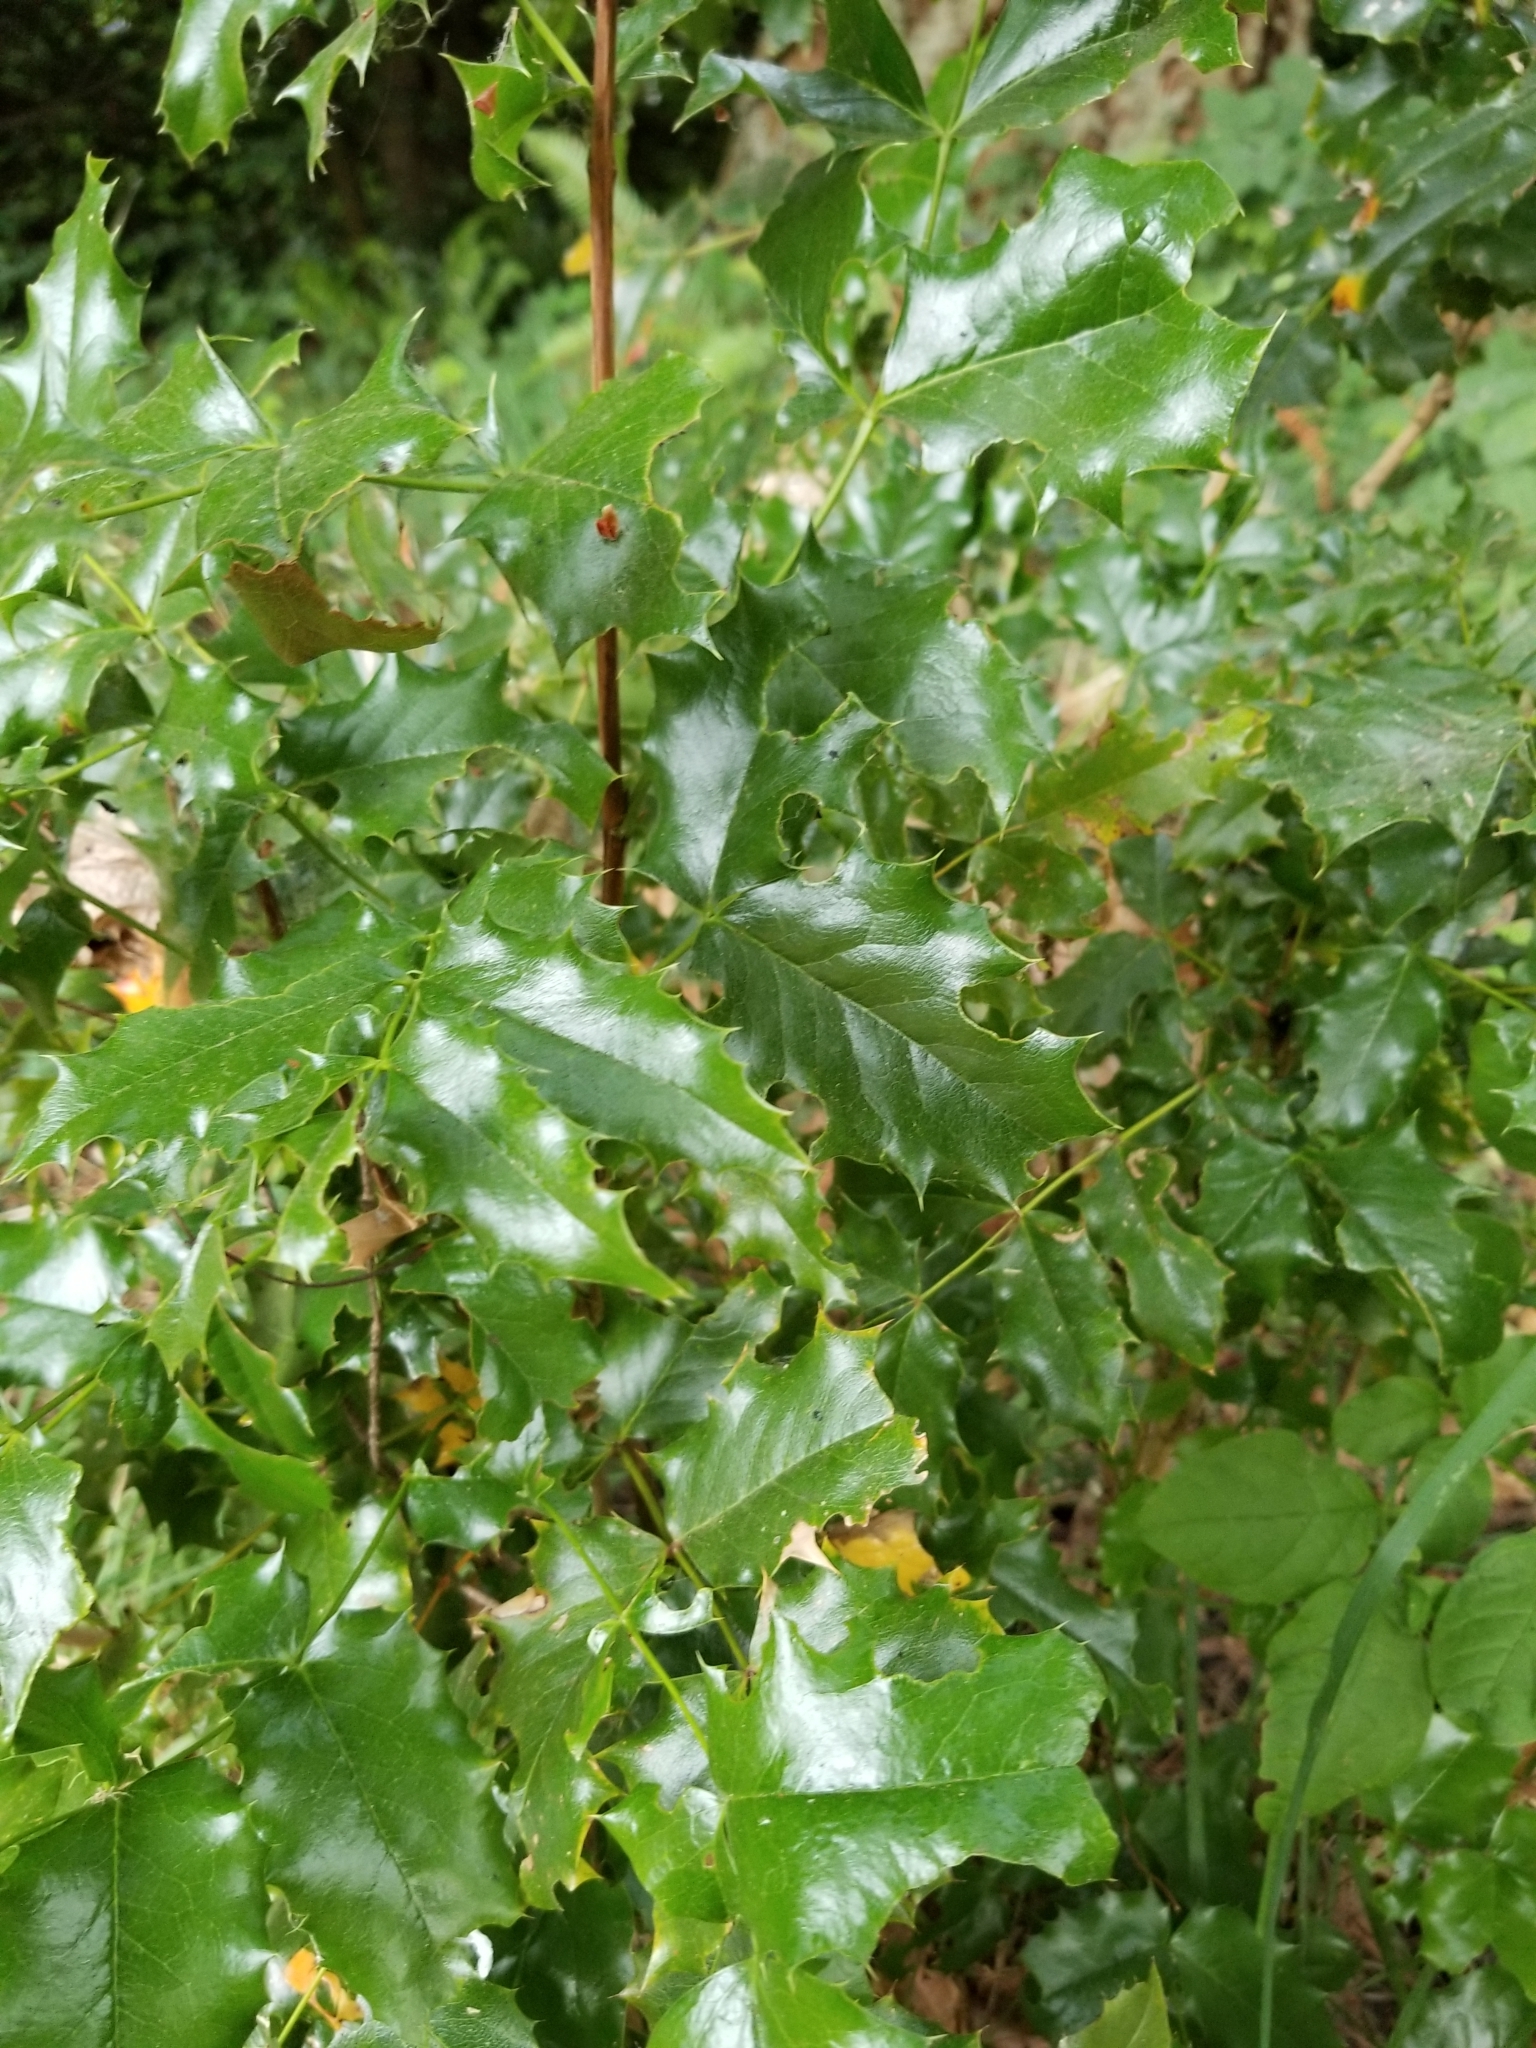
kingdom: Plantae
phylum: Tracheophyta
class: Magnoliopsida
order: Ranunculales
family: Berberidaceae
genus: Mahonia
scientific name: Mahonia aquifolium
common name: Oregon-grape
